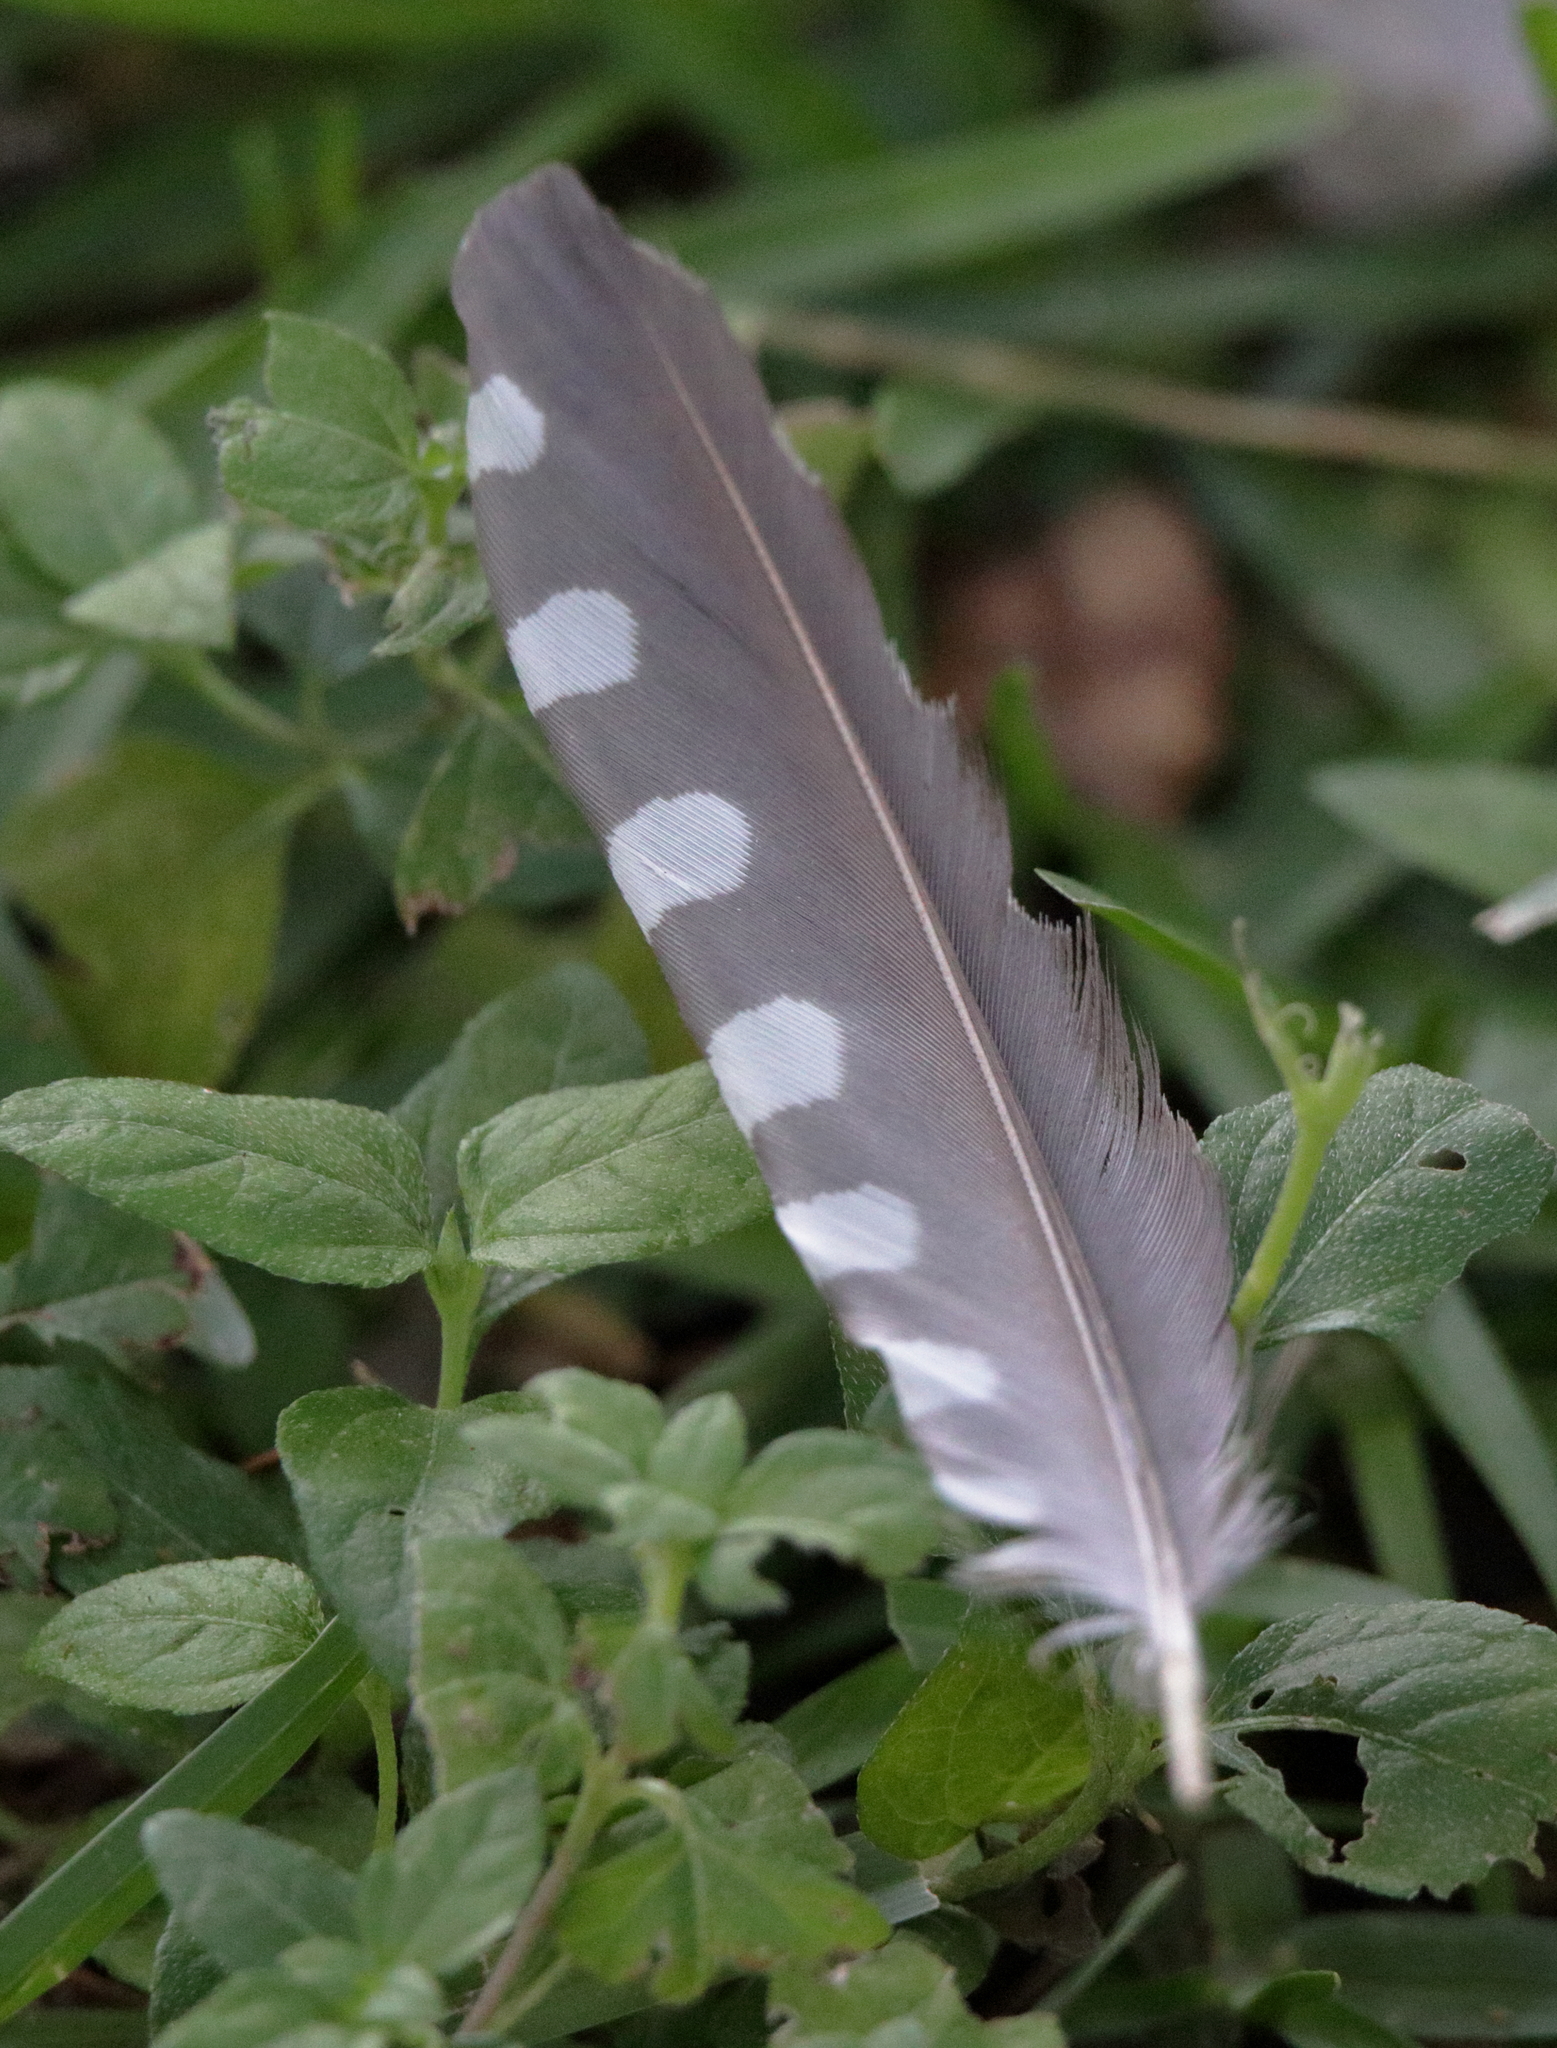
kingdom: Animalia
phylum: Chordata
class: Aves
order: Piciformes
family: Picidae
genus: Melanerpes
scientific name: Melanerpes carolinus
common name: Red-bellied woodpecker
